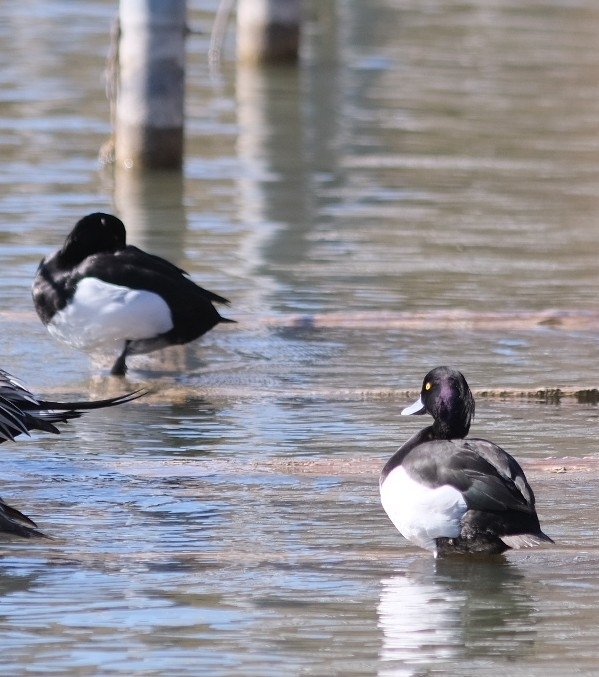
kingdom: Animalia
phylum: Chordata
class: Aves
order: Anseriformes
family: Anatidae
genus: Aythya
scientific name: Aythya fuligula
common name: Tufted duck
